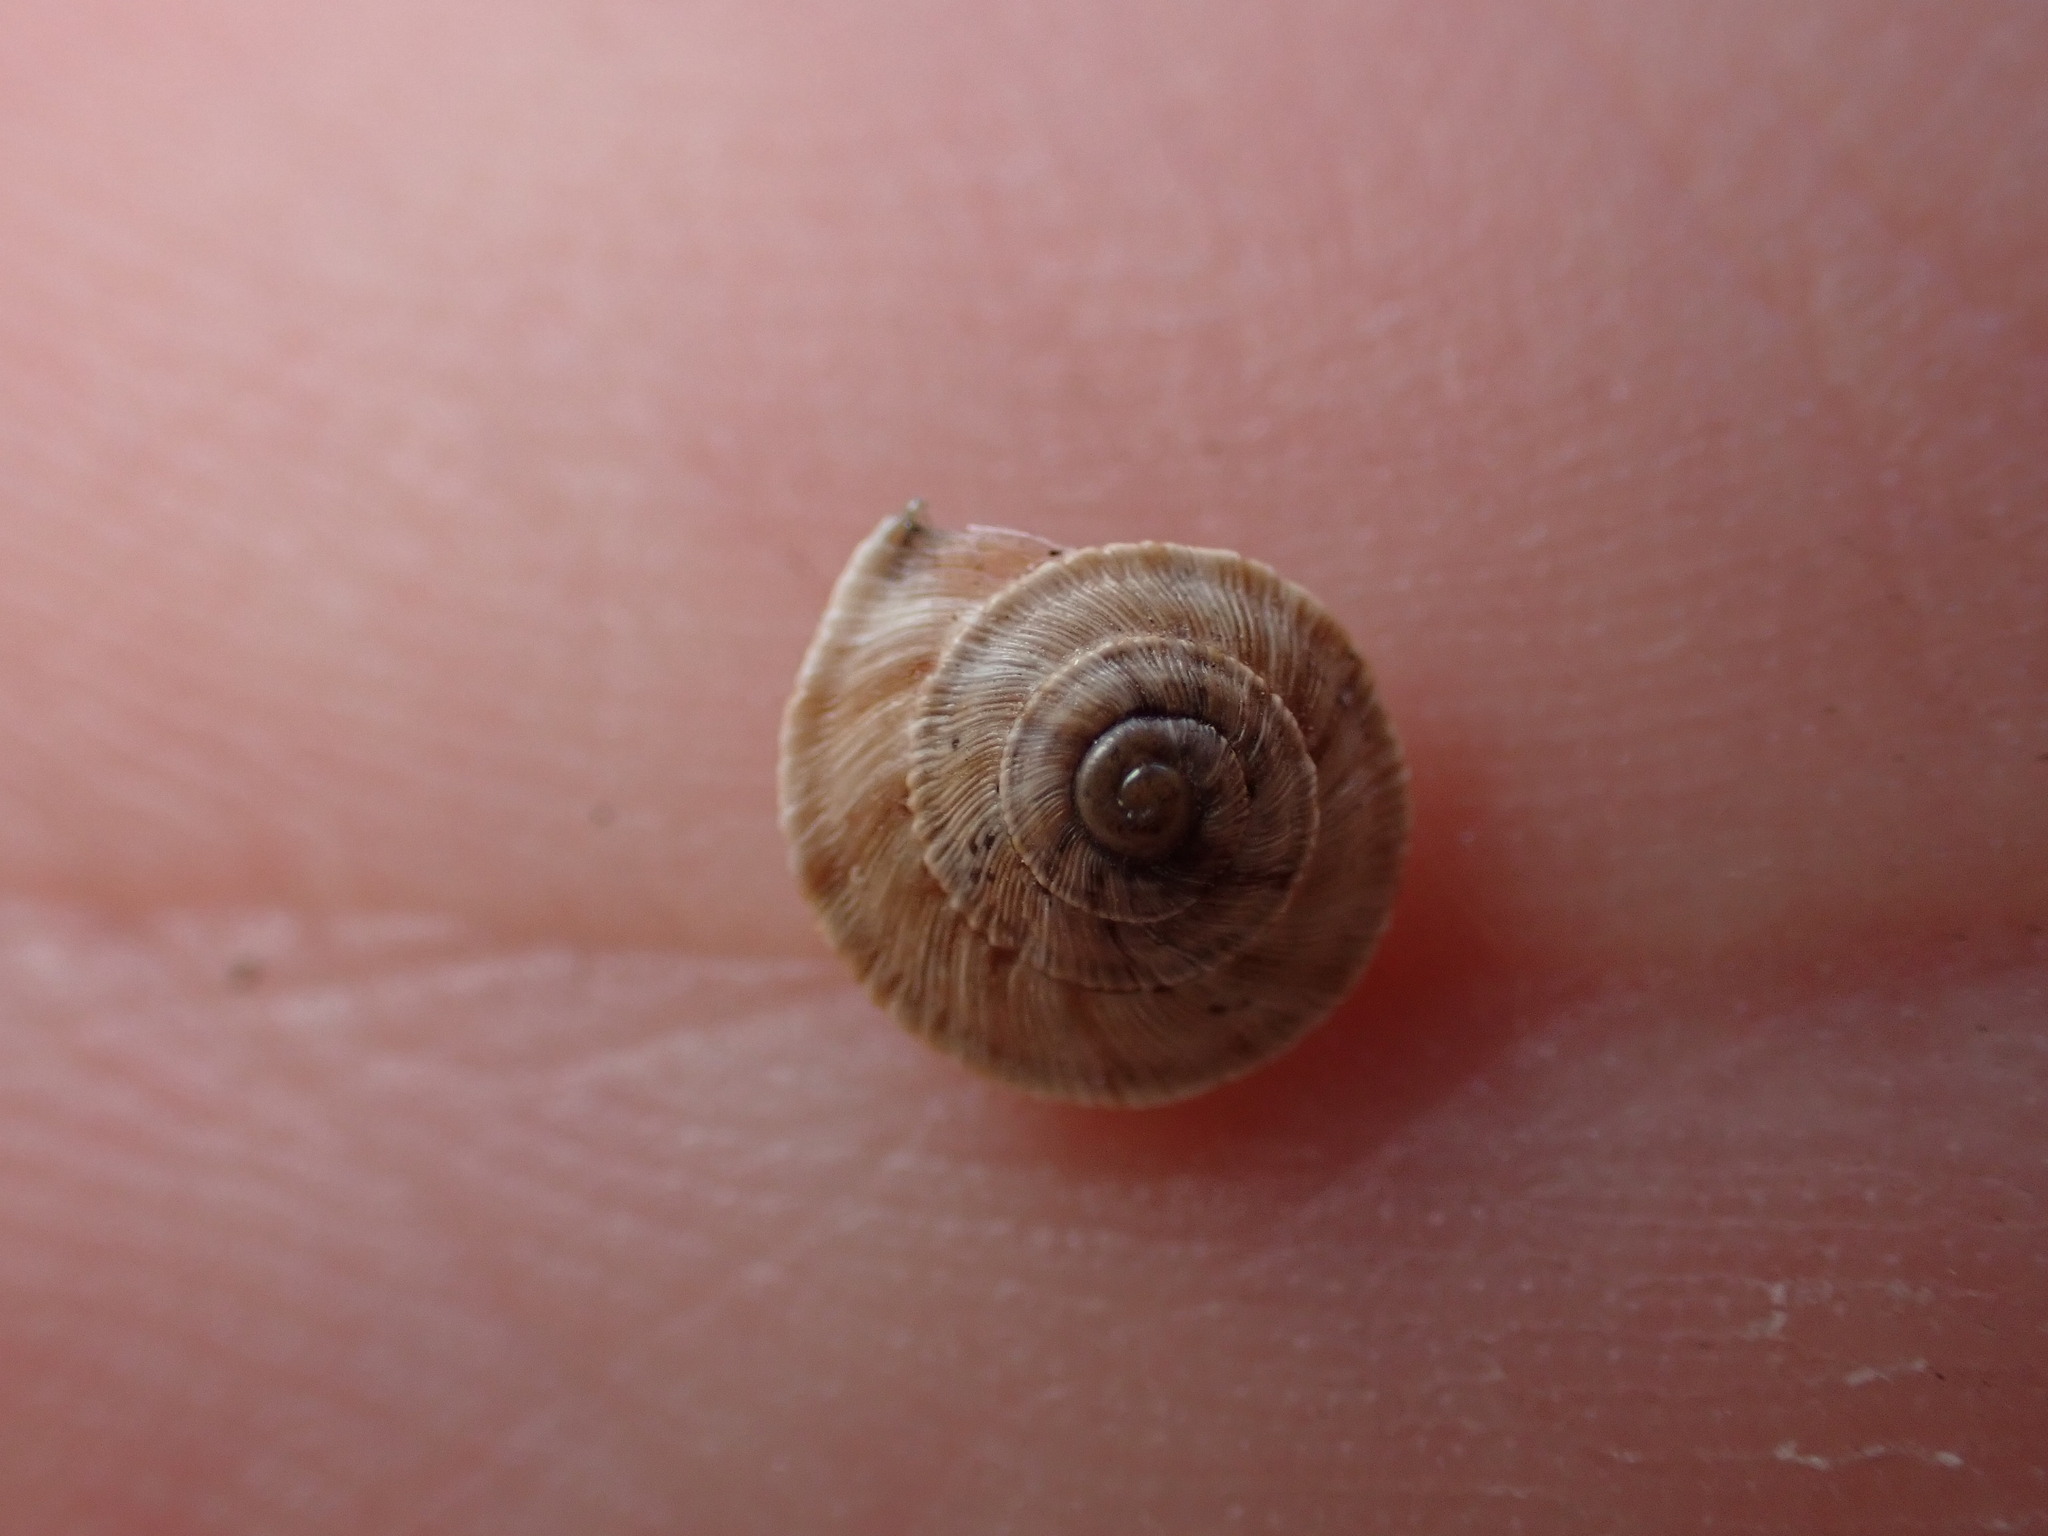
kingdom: Animalia
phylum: Mollusca
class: Gastropoda
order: Stylommatophora
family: Geomitridae
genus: Trochoidea
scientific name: Trochoidea elegans
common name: Elegant helicellid
